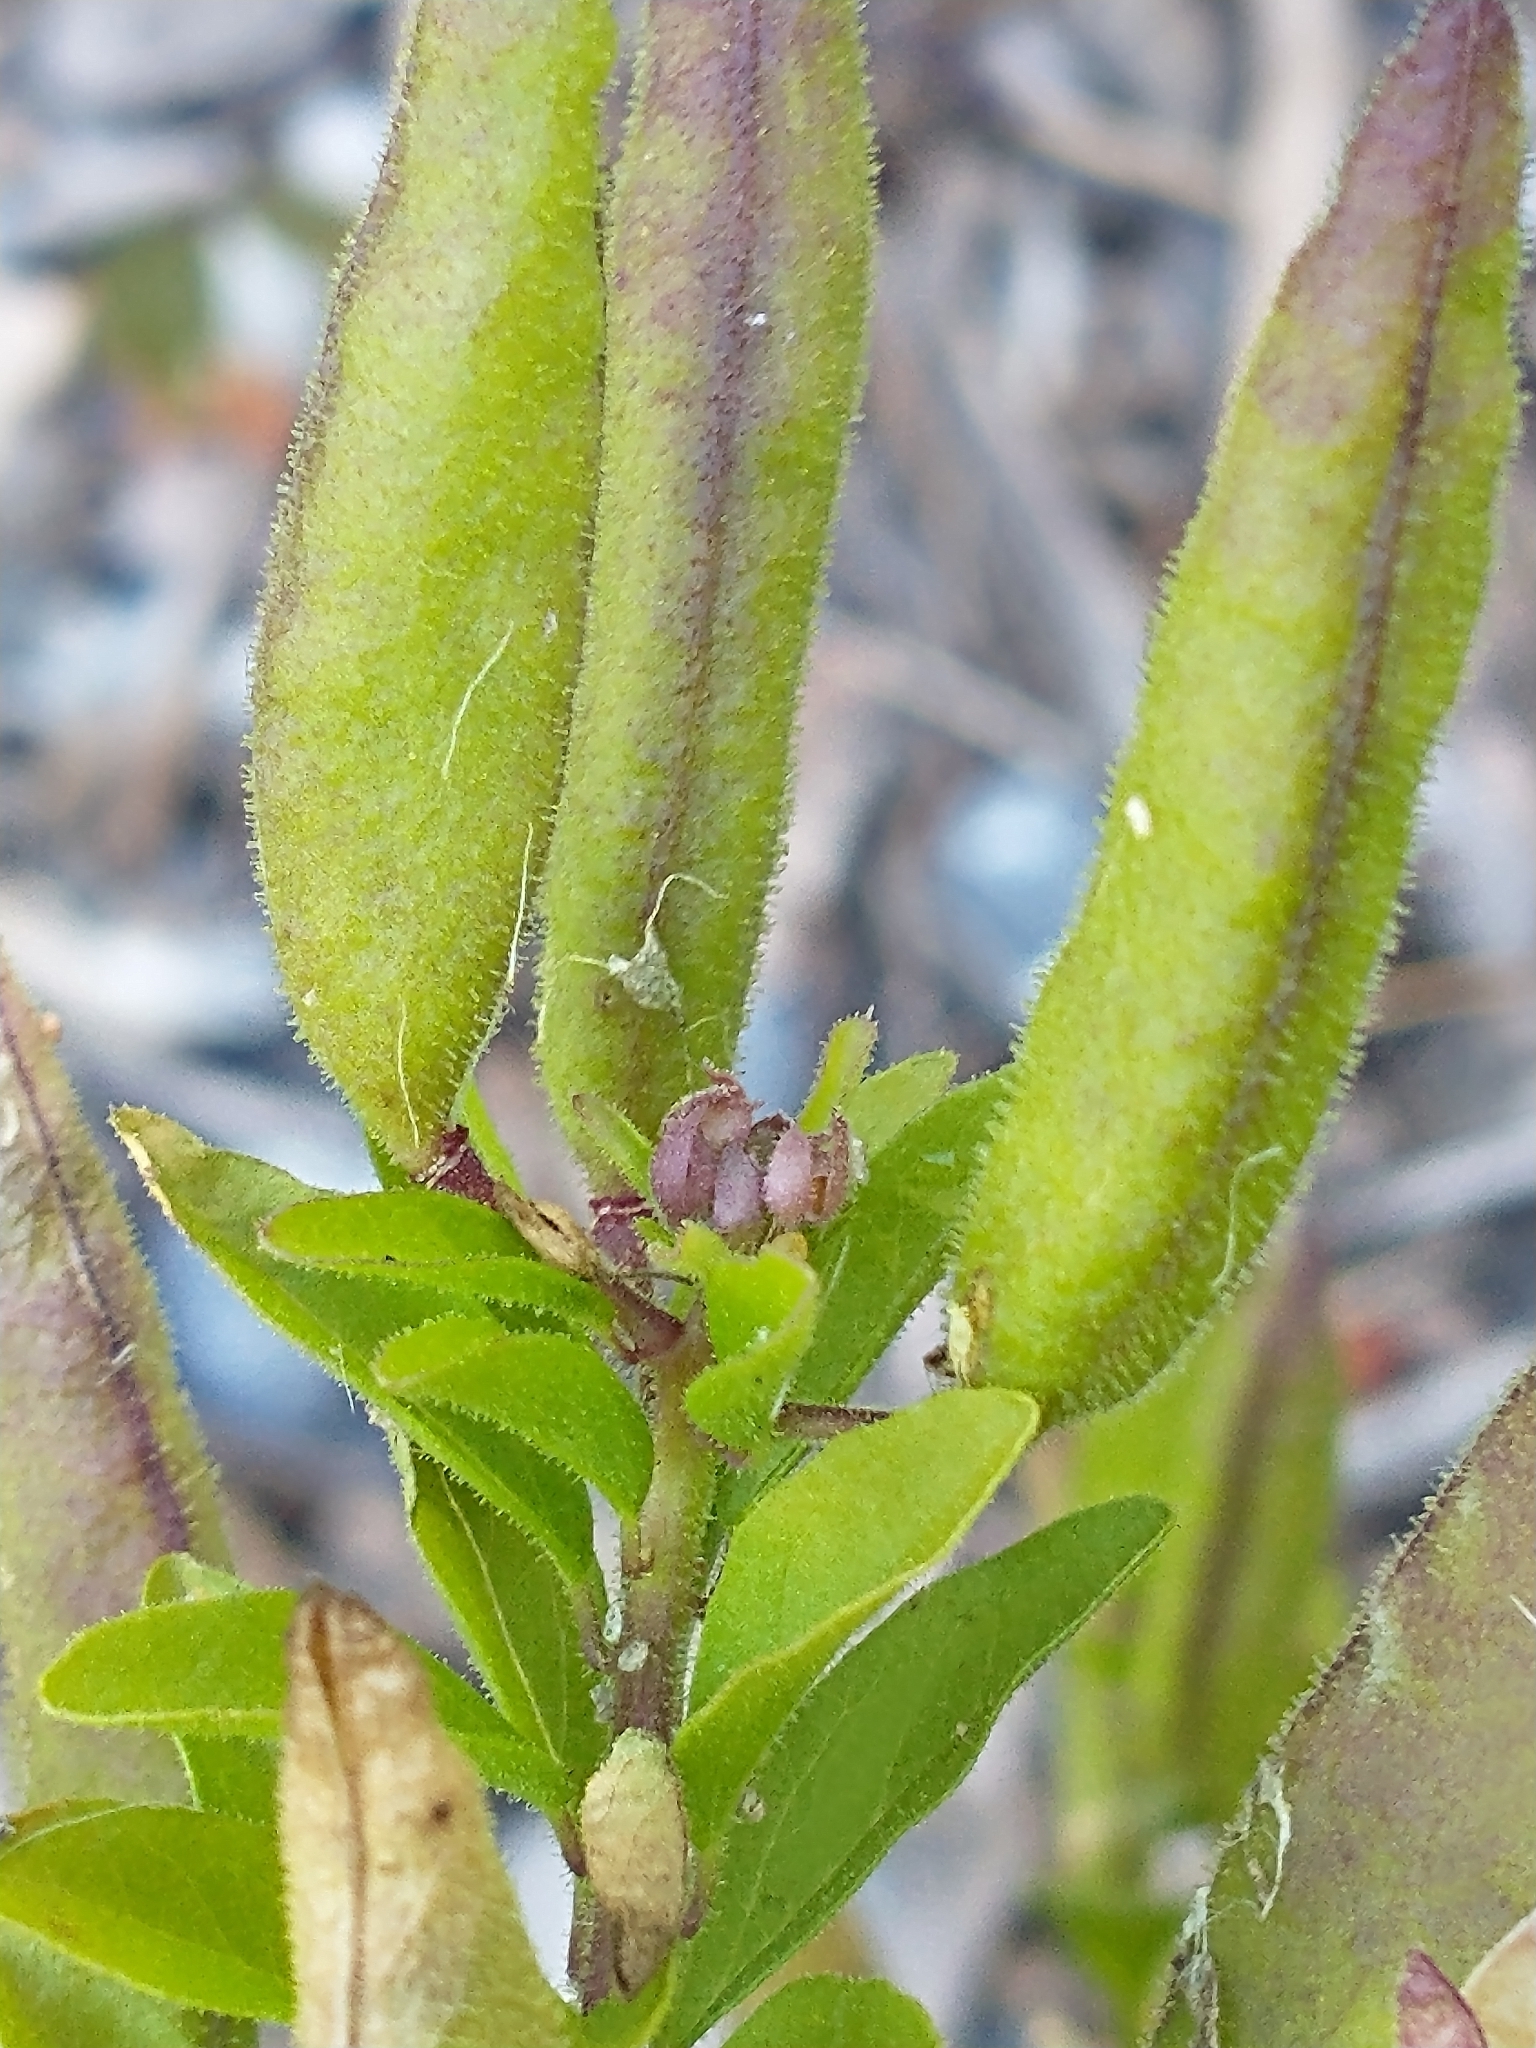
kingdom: Plantae
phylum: Tracheophyta
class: Magnoliopsida
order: Brassicales
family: Cleomaceae
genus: Polanisia
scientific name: Polanisia dodecandra
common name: Clammyweed
